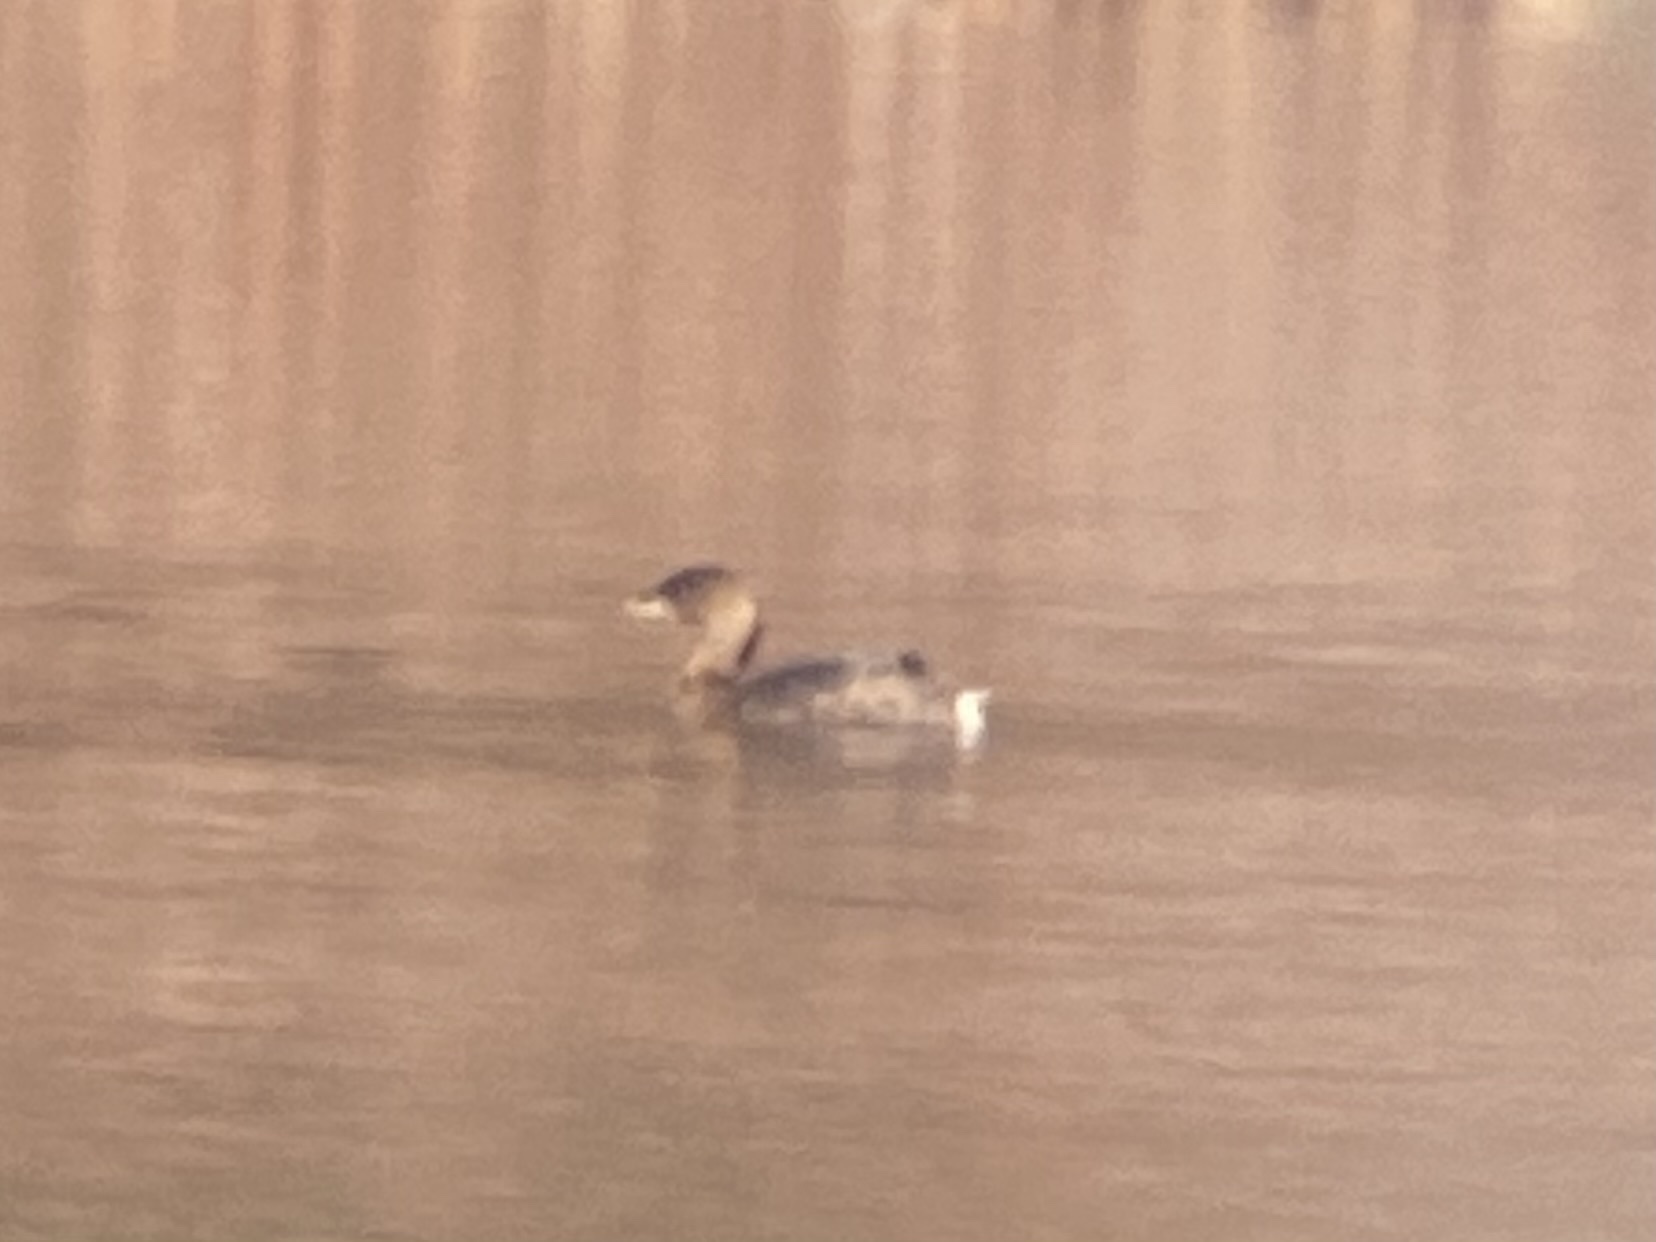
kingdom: Animalia
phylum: Chordata
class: Aves
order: Podicipediformes
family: Podicipedidae
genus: Podilymbus
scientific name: Podilymbus podiceps
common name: Pied-billed grebe
